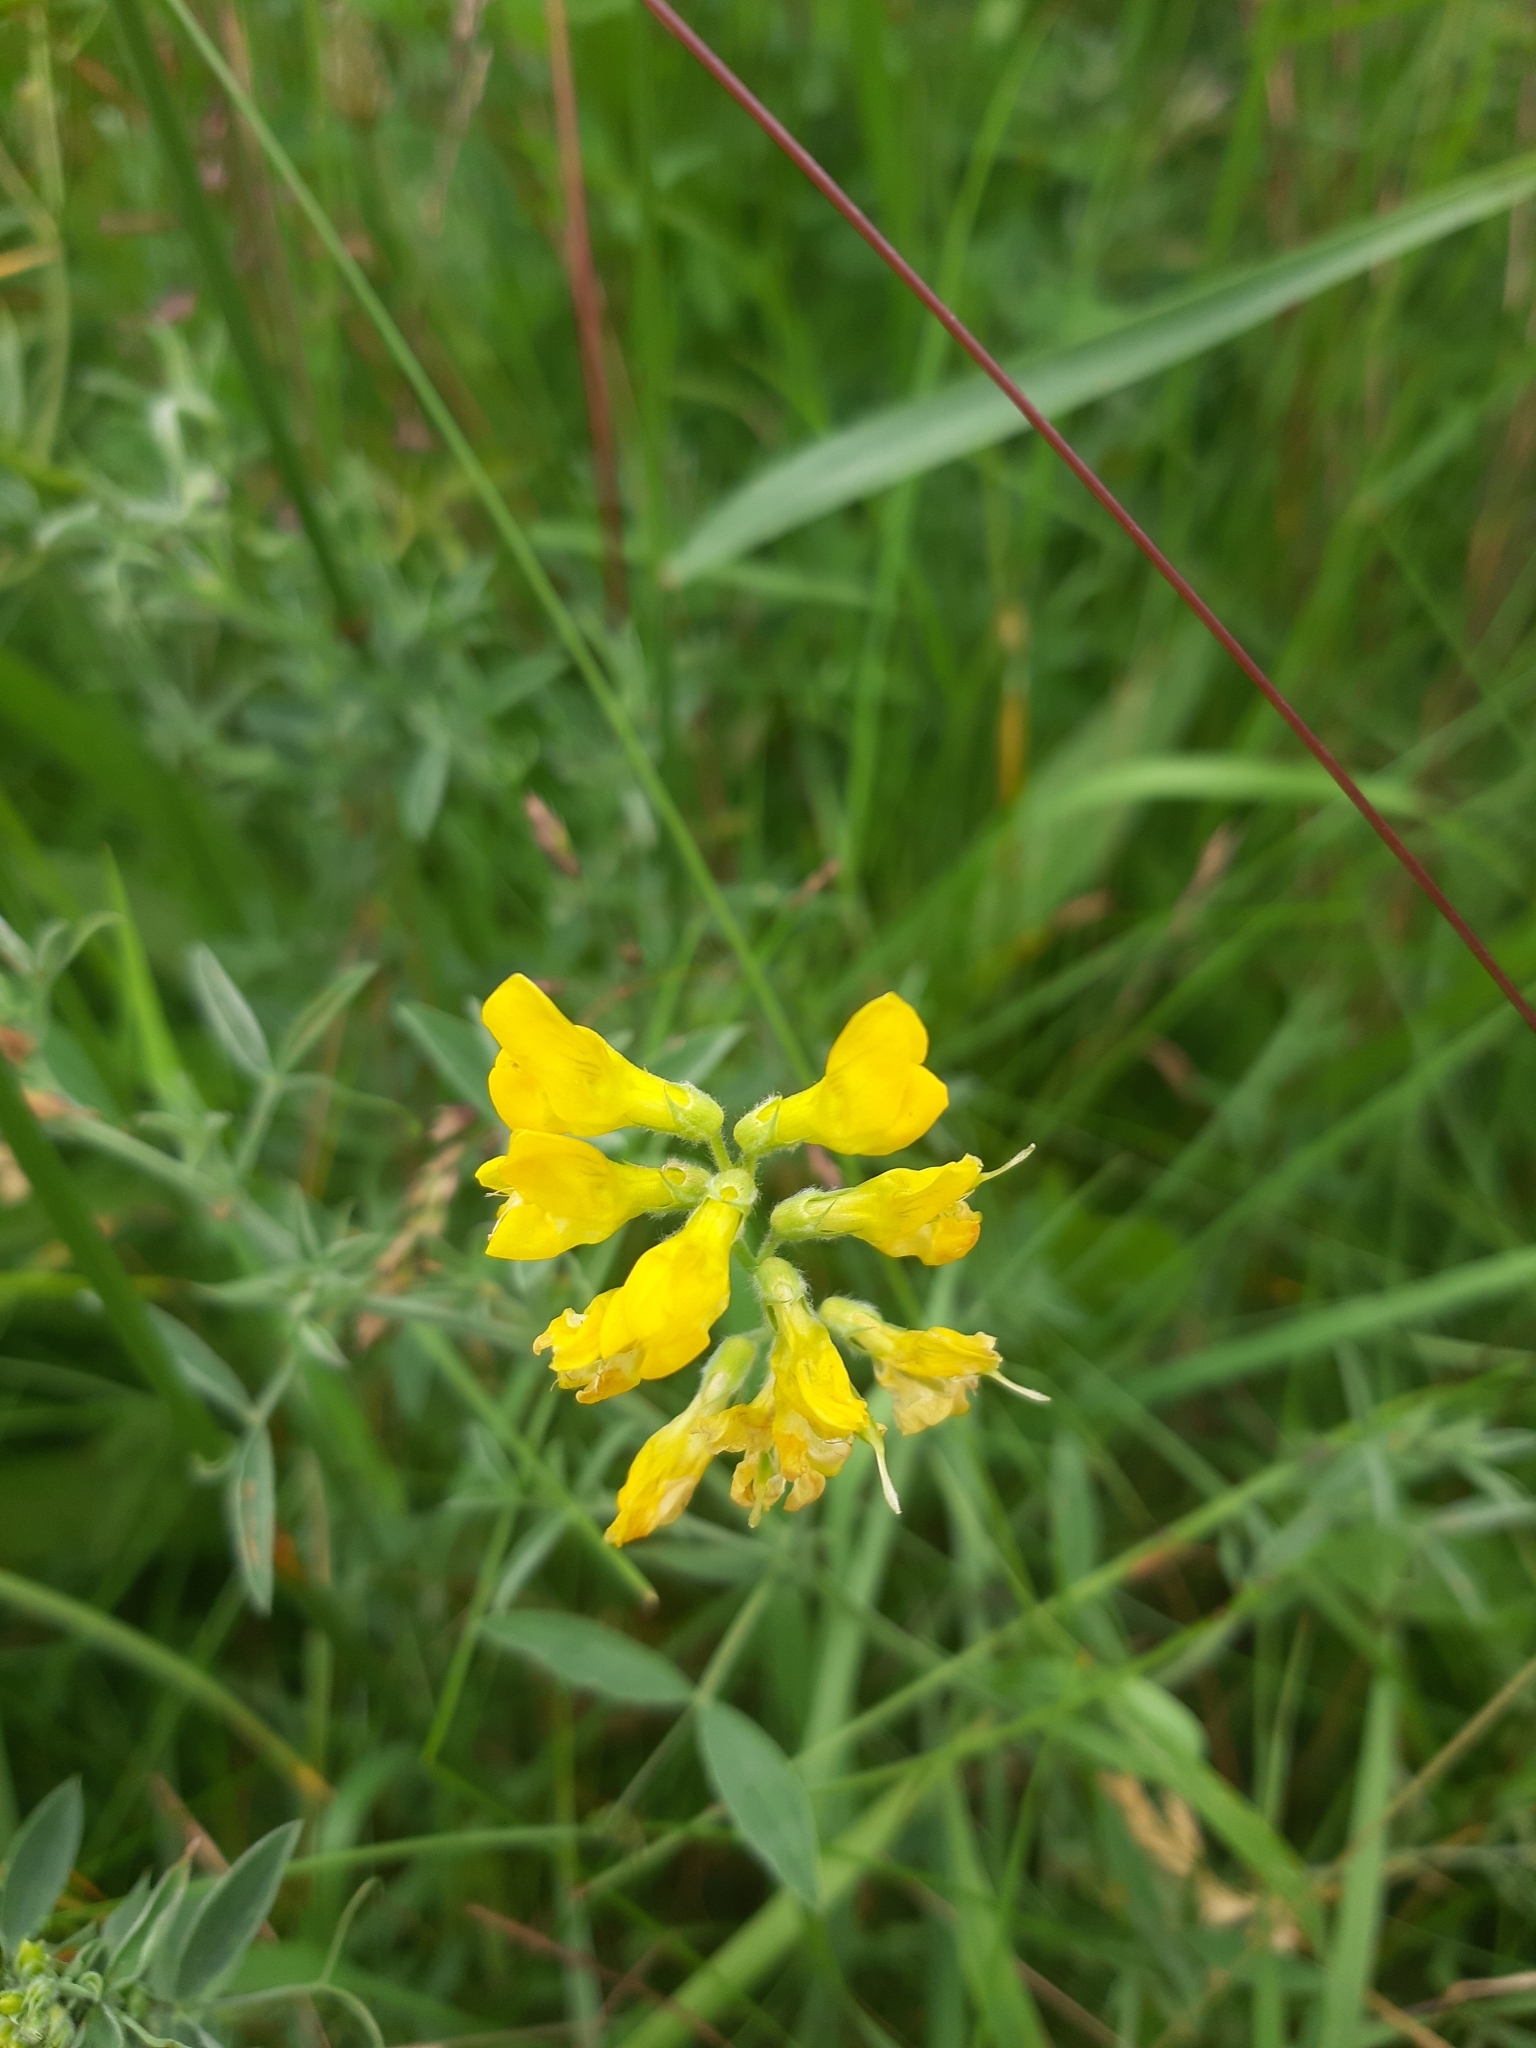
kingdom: Plantae
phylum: Tracheophyta
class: Magnoliopsida
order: Fabales
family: Fabaceae
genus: Lathyrus
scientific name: Lathyrus pratensis
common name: Meadow vetchling
